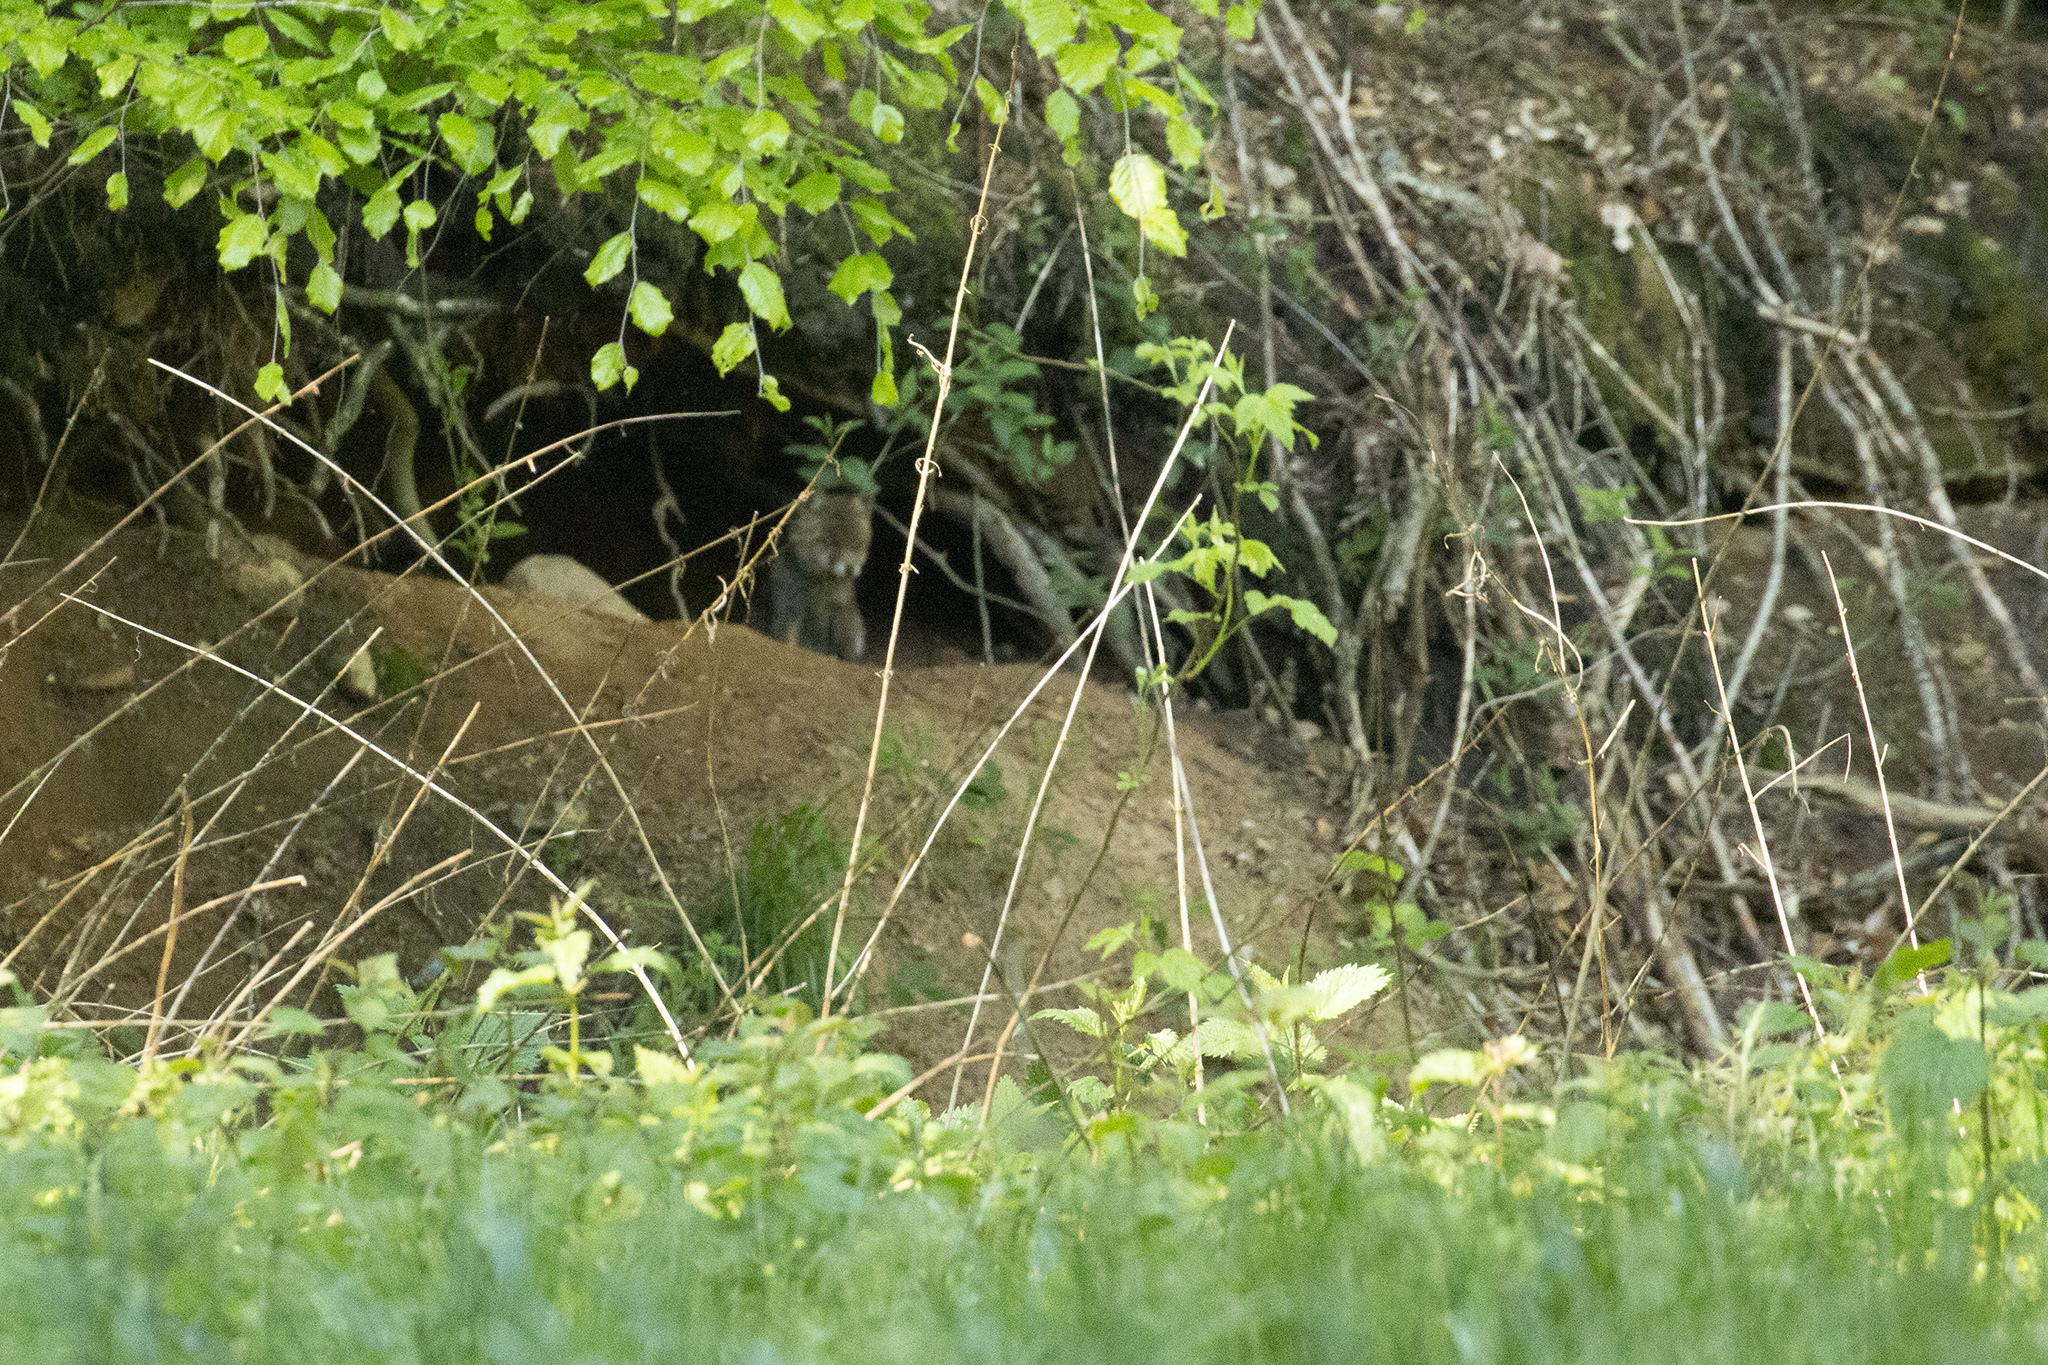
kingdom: Animalia
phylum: Chordata
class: Mammalia
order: Carnivora
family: Canidae
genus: Vulpes
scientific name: Vulpes vulpes
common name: Red fox
